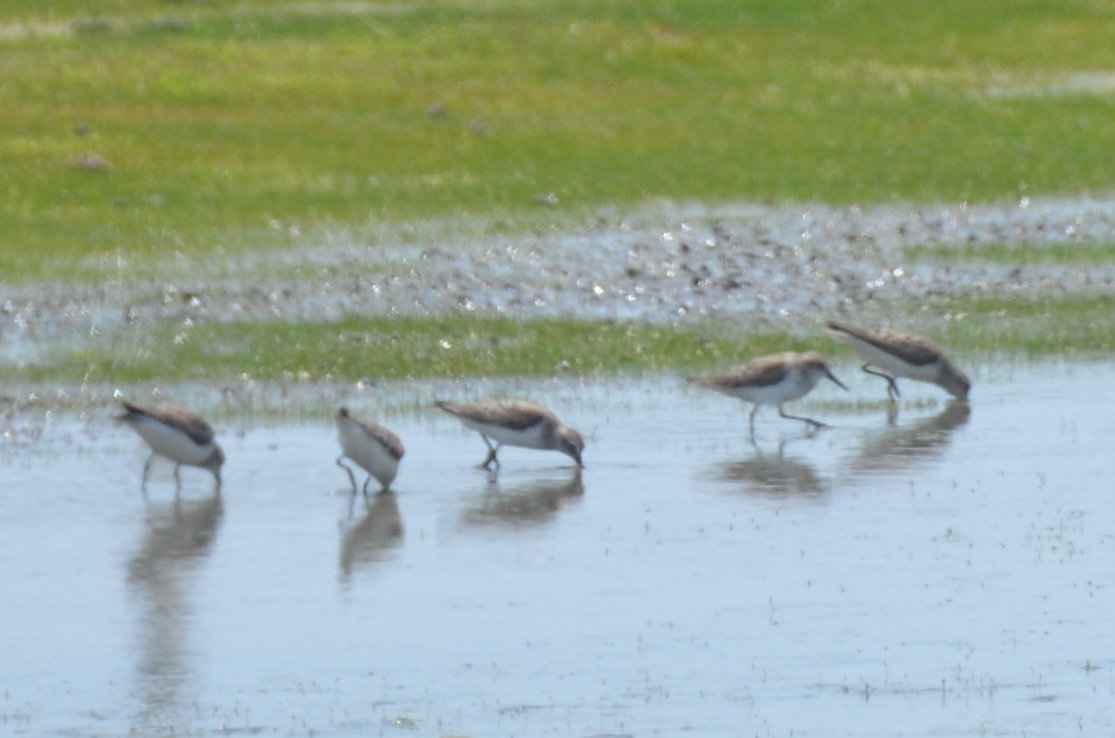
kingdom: Animalia
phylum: Chordata
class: Aves
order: Charadriiformes
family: Scolopacidae
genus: Calidris
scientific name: Calidris pusilla
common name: Semipalmated sandpiper
